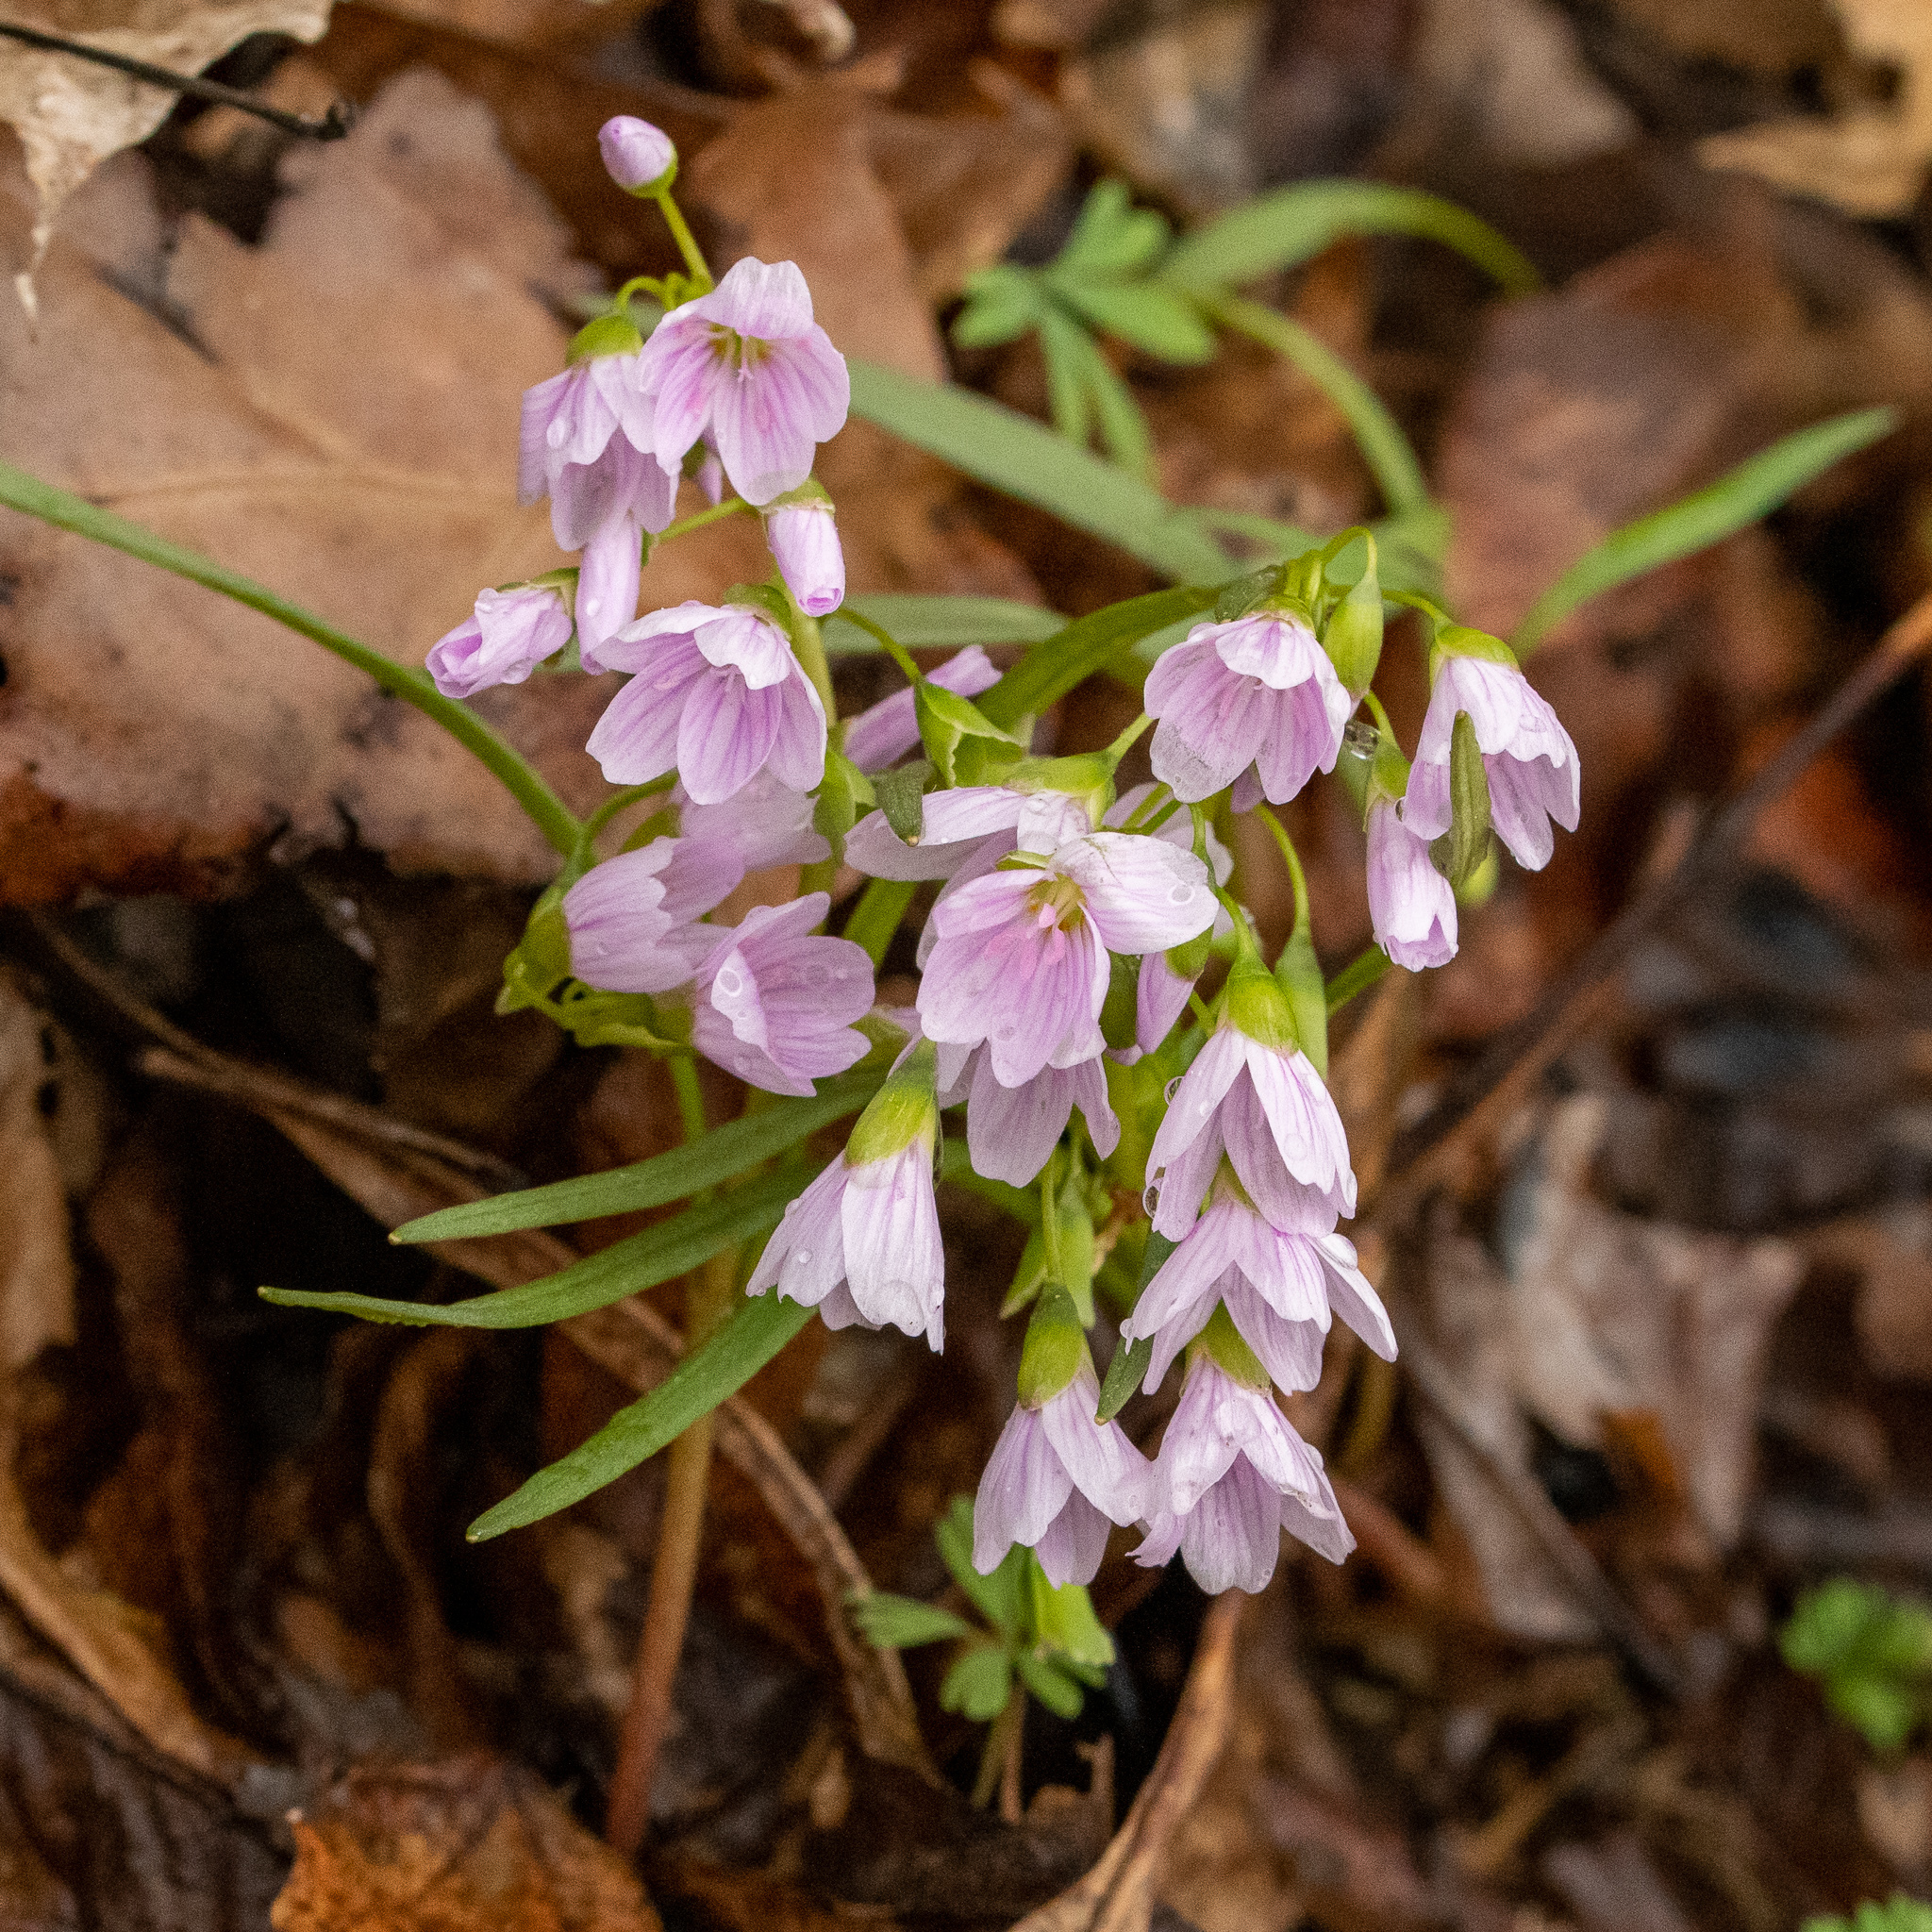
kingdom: Plantae
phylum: Tracheophyta
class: Magnoliopsida
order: Caryophyllales
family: Montiaceae
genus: Claytonia
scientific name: Claytonia virginica
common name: Virginia springbeauty
